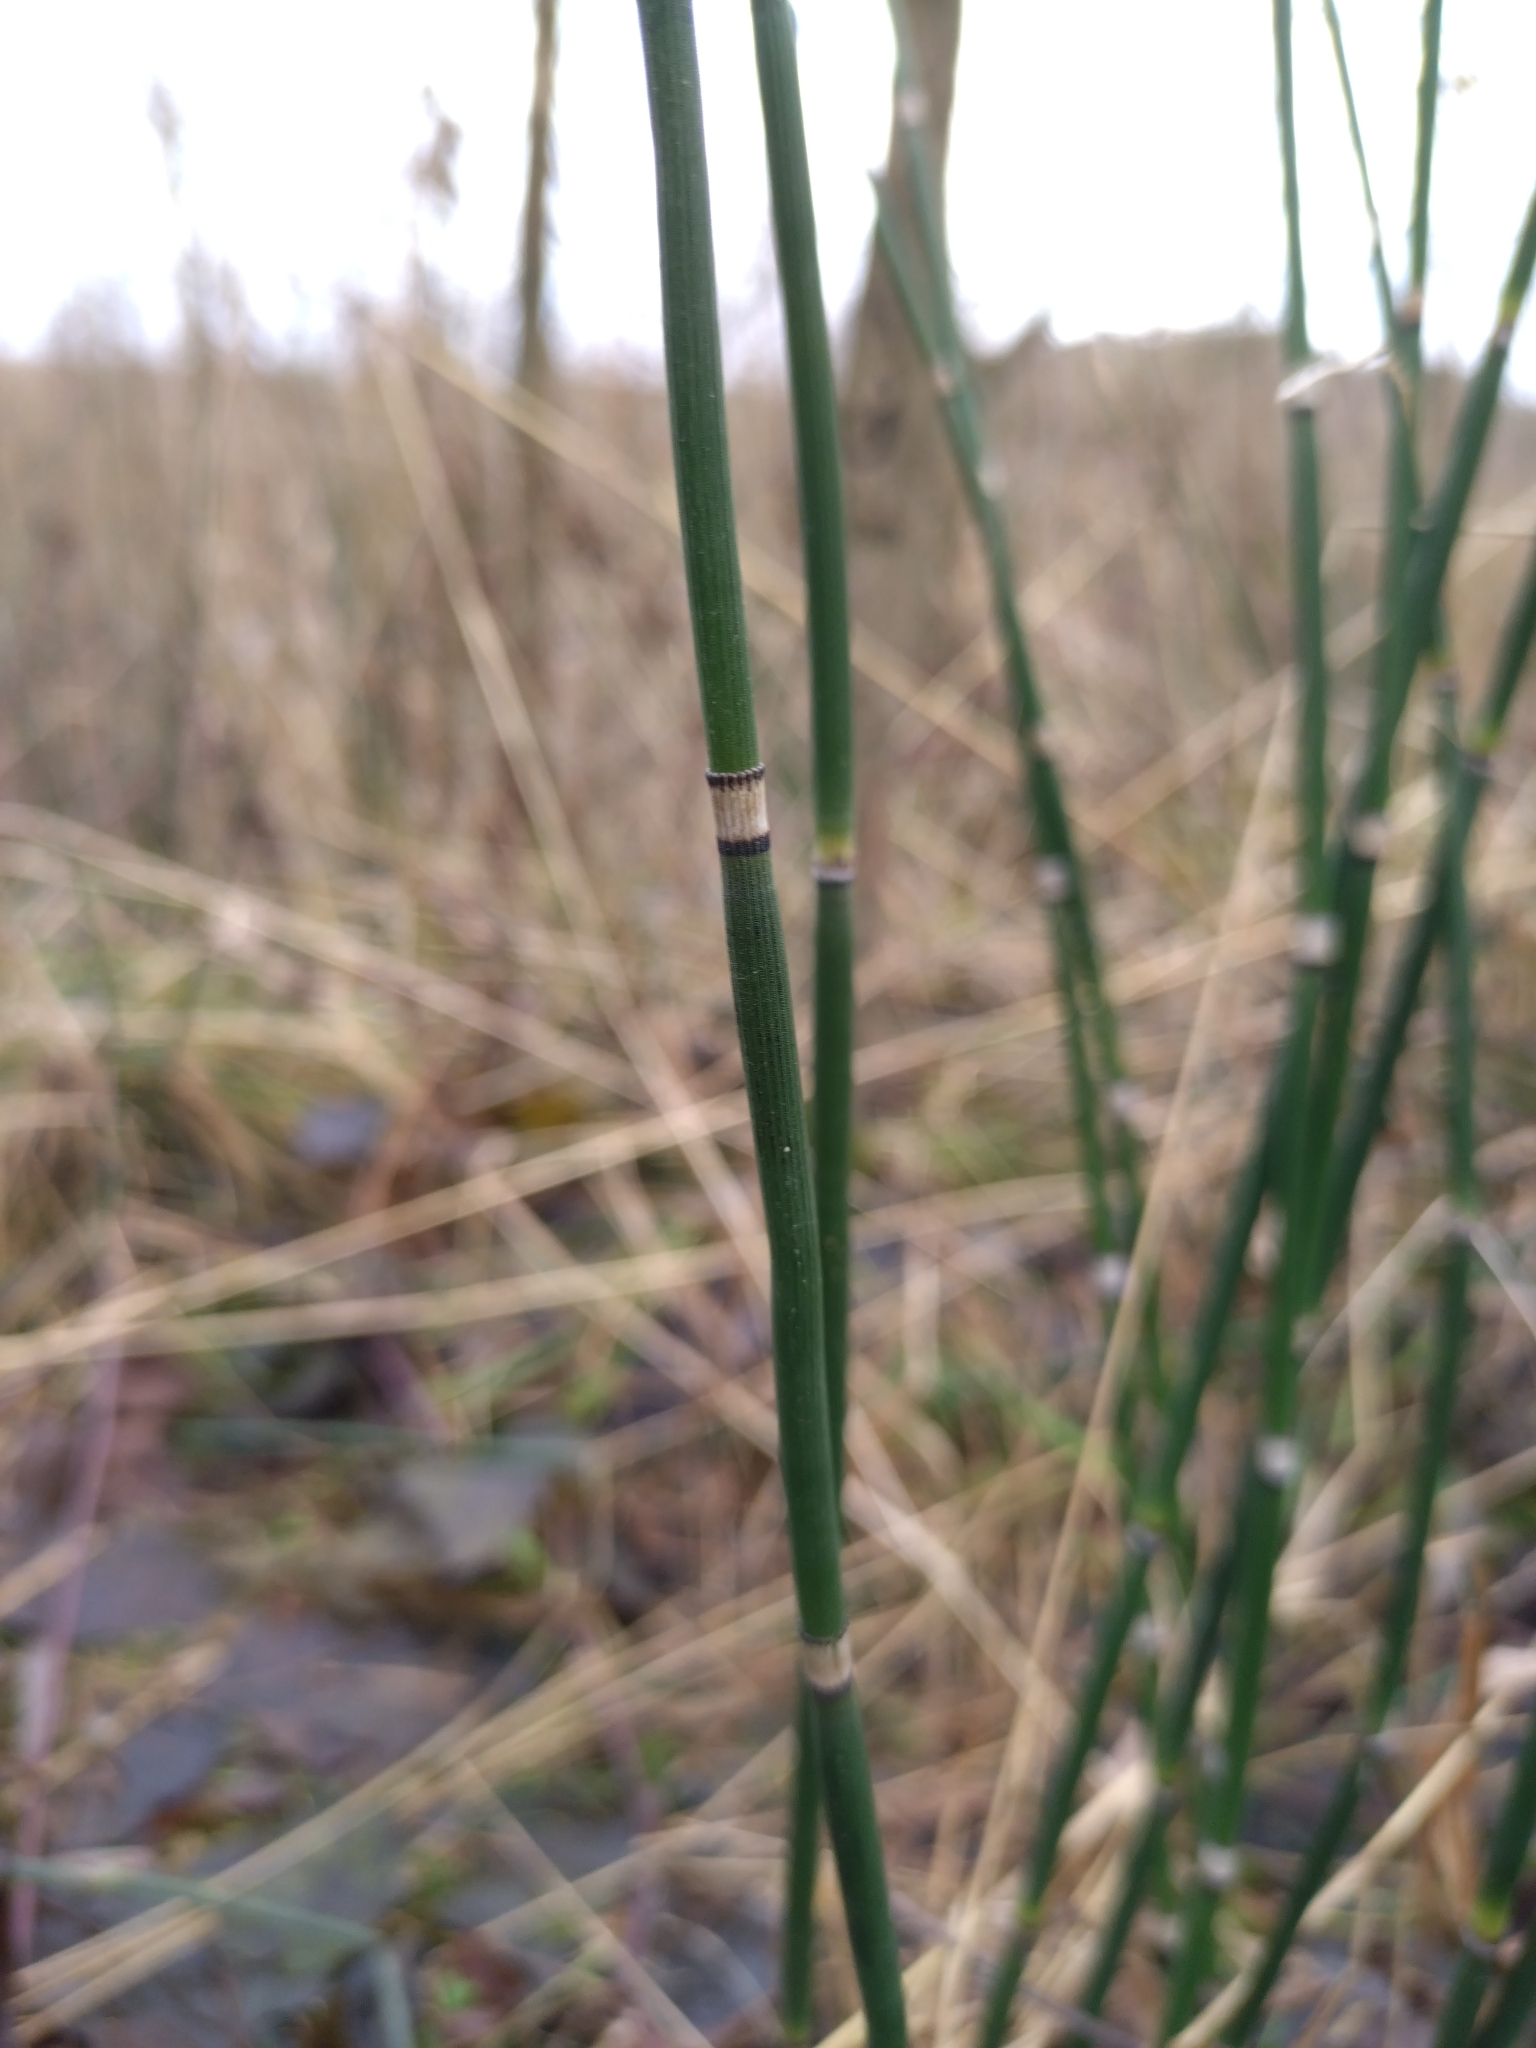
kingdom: Plantae
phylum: Tracheophyta
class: Polypodiopsida
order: Equisetales
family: Equisetaceae
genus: Equisetum
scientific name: Equisetum hyemale
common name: Rough horsetail
